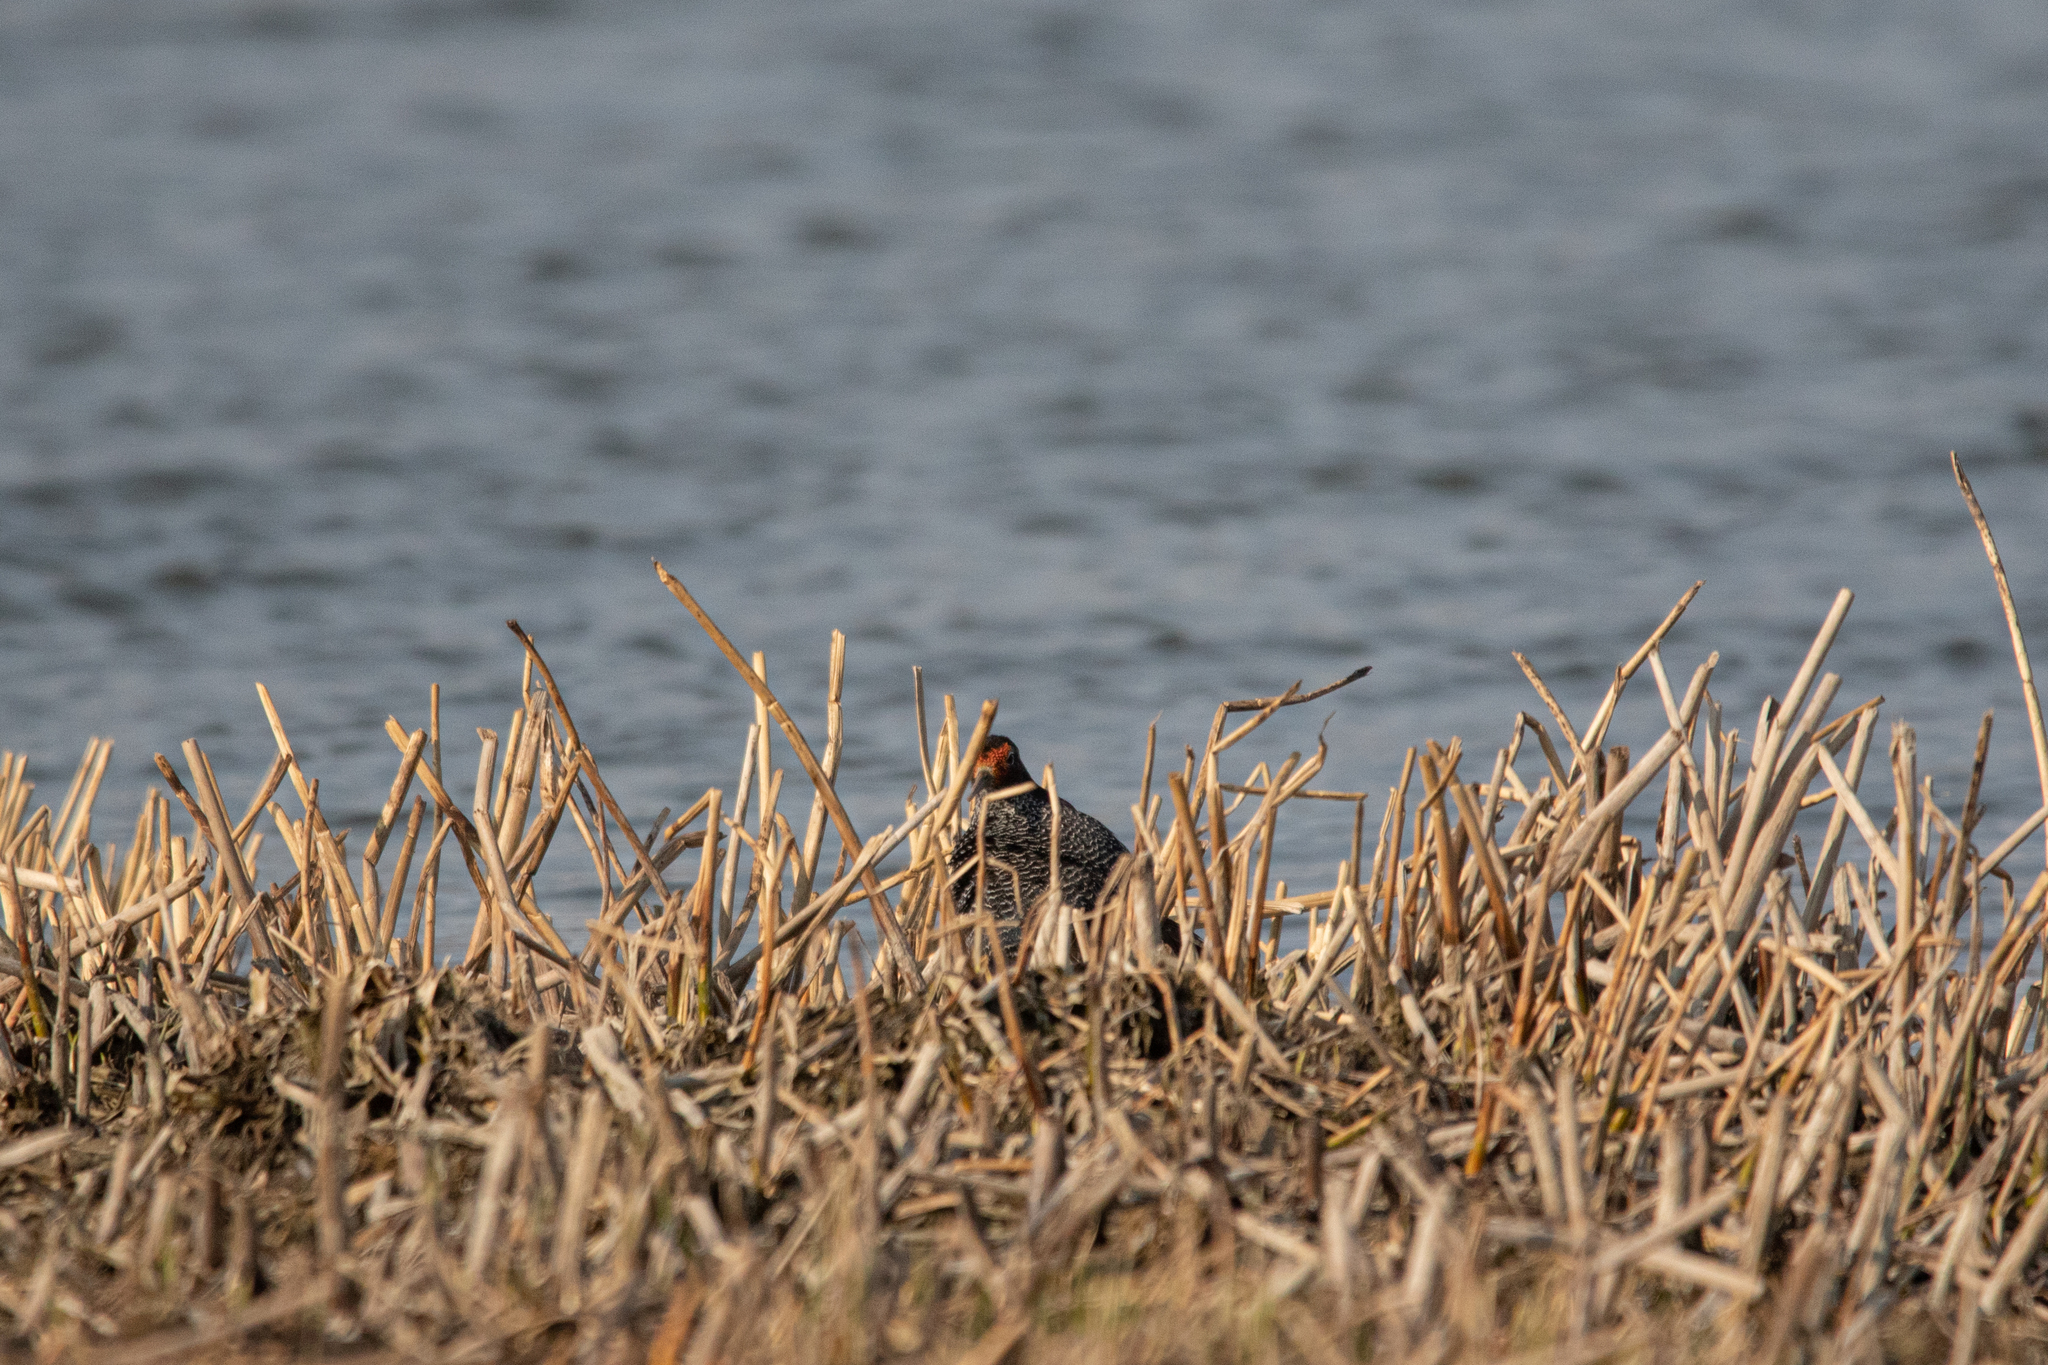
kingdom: Animalia
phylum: Chordata
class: Aves
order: Charadriiformes
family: Scolopacidae
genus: Calidris
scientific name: Calidris pugnax
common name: Ruff
